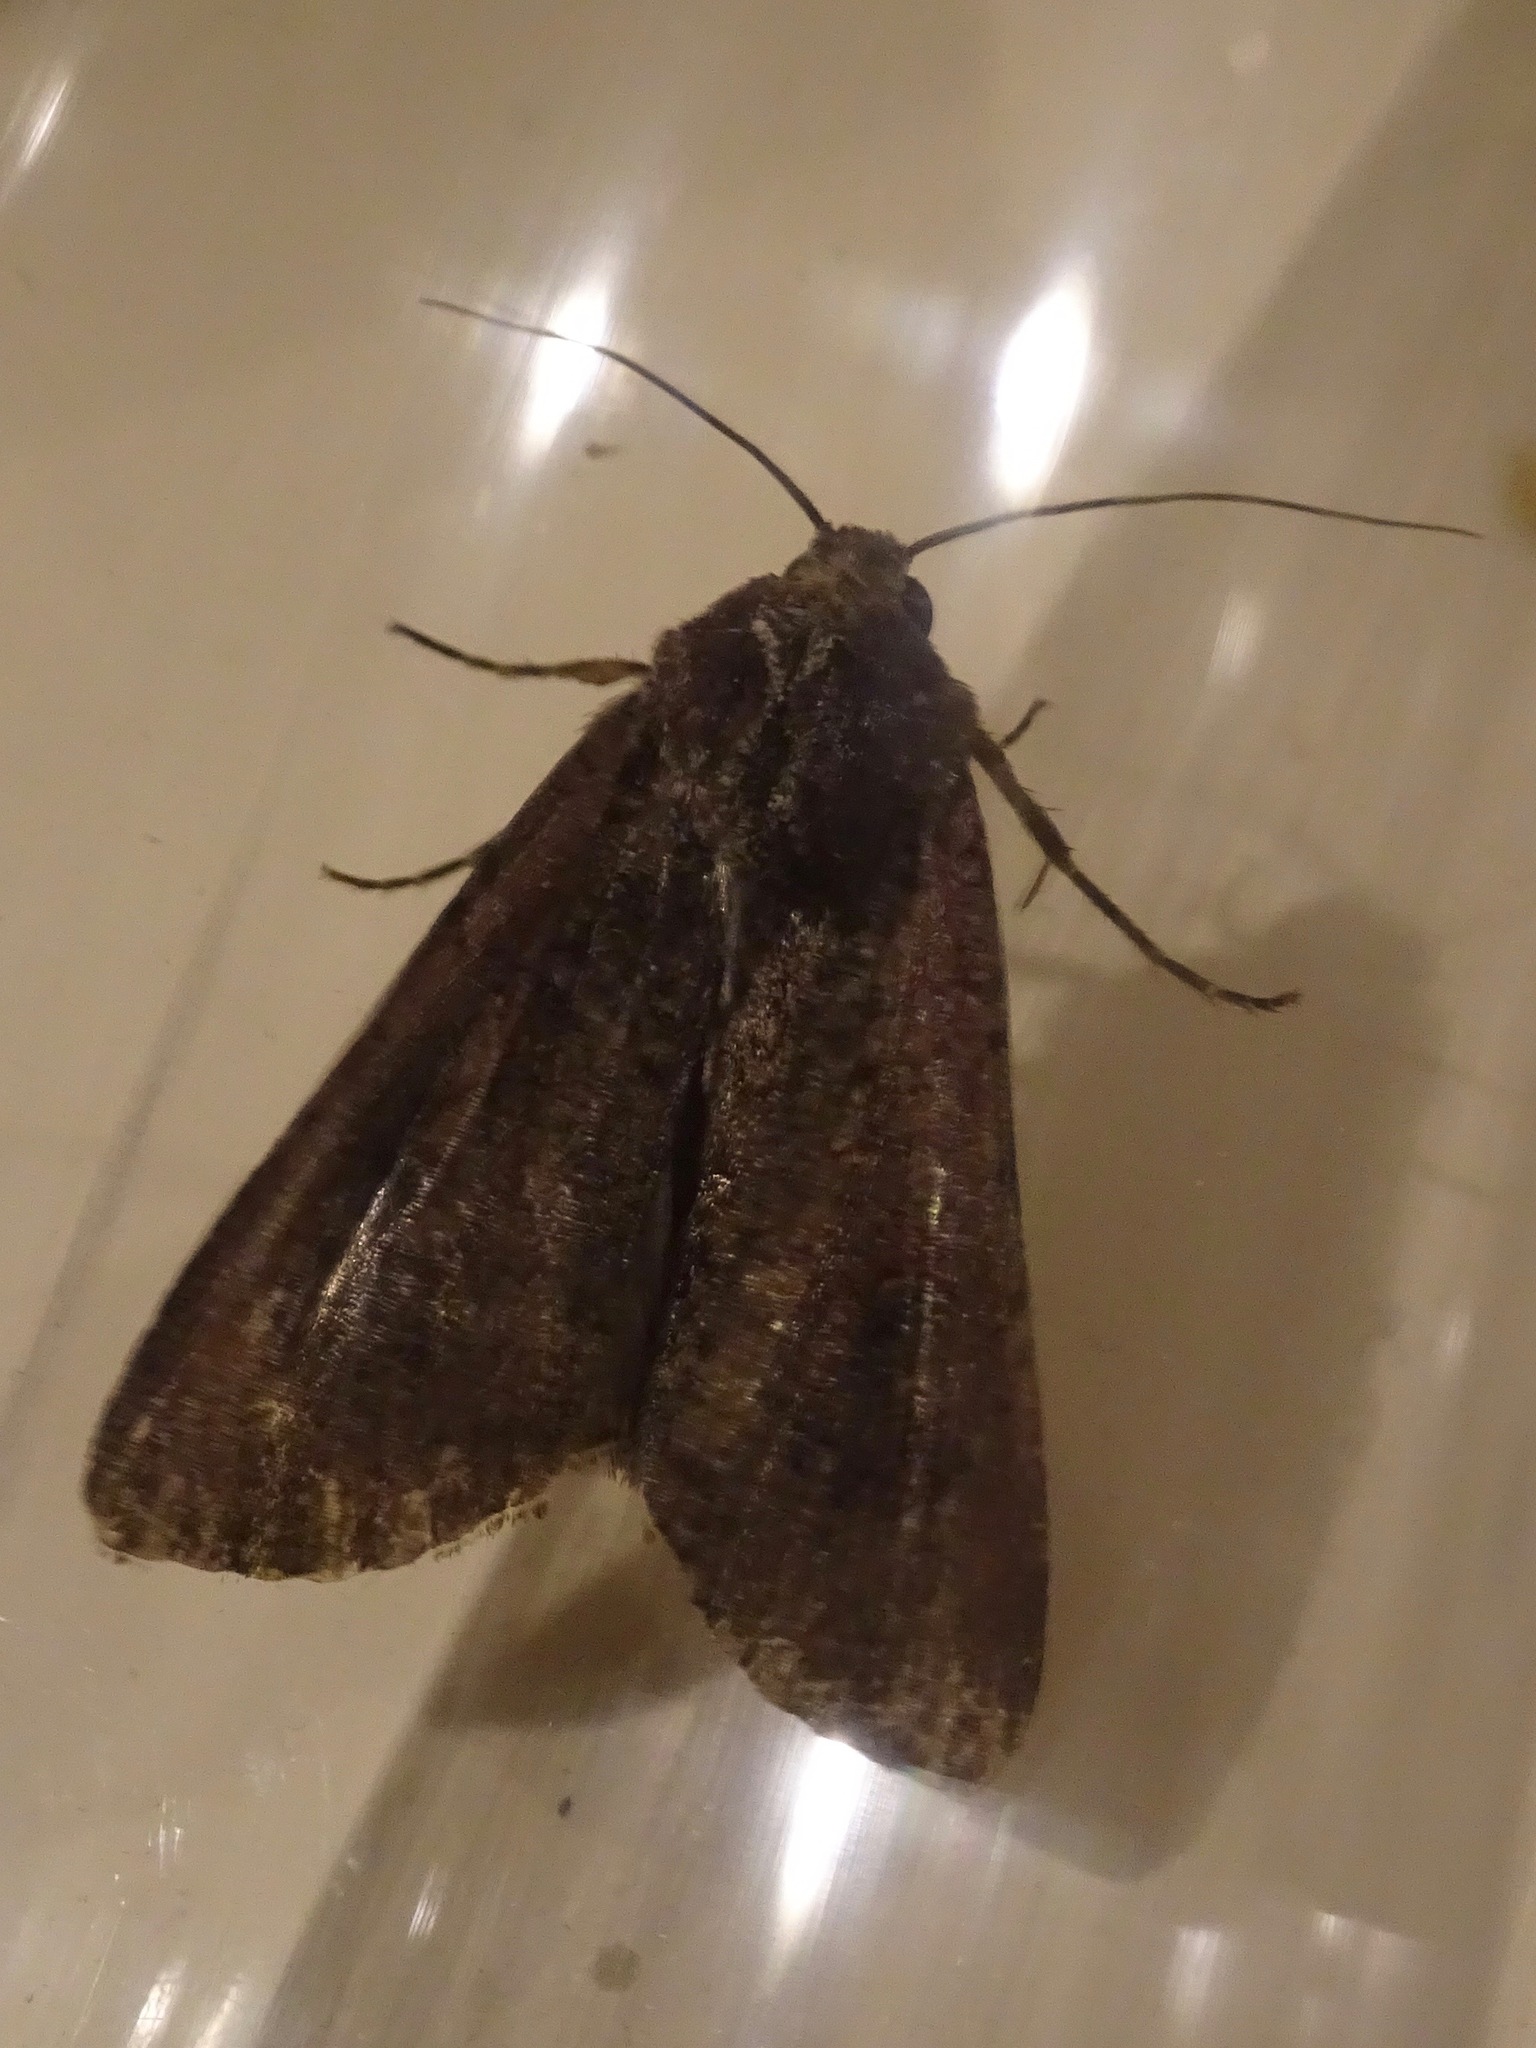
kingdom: Animalia
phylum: Arthropoda
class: Insecta
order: Lepidoptera
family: Noctuidae
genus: Peridroma
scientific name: Peridroma saucia
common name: Pearly underwing
